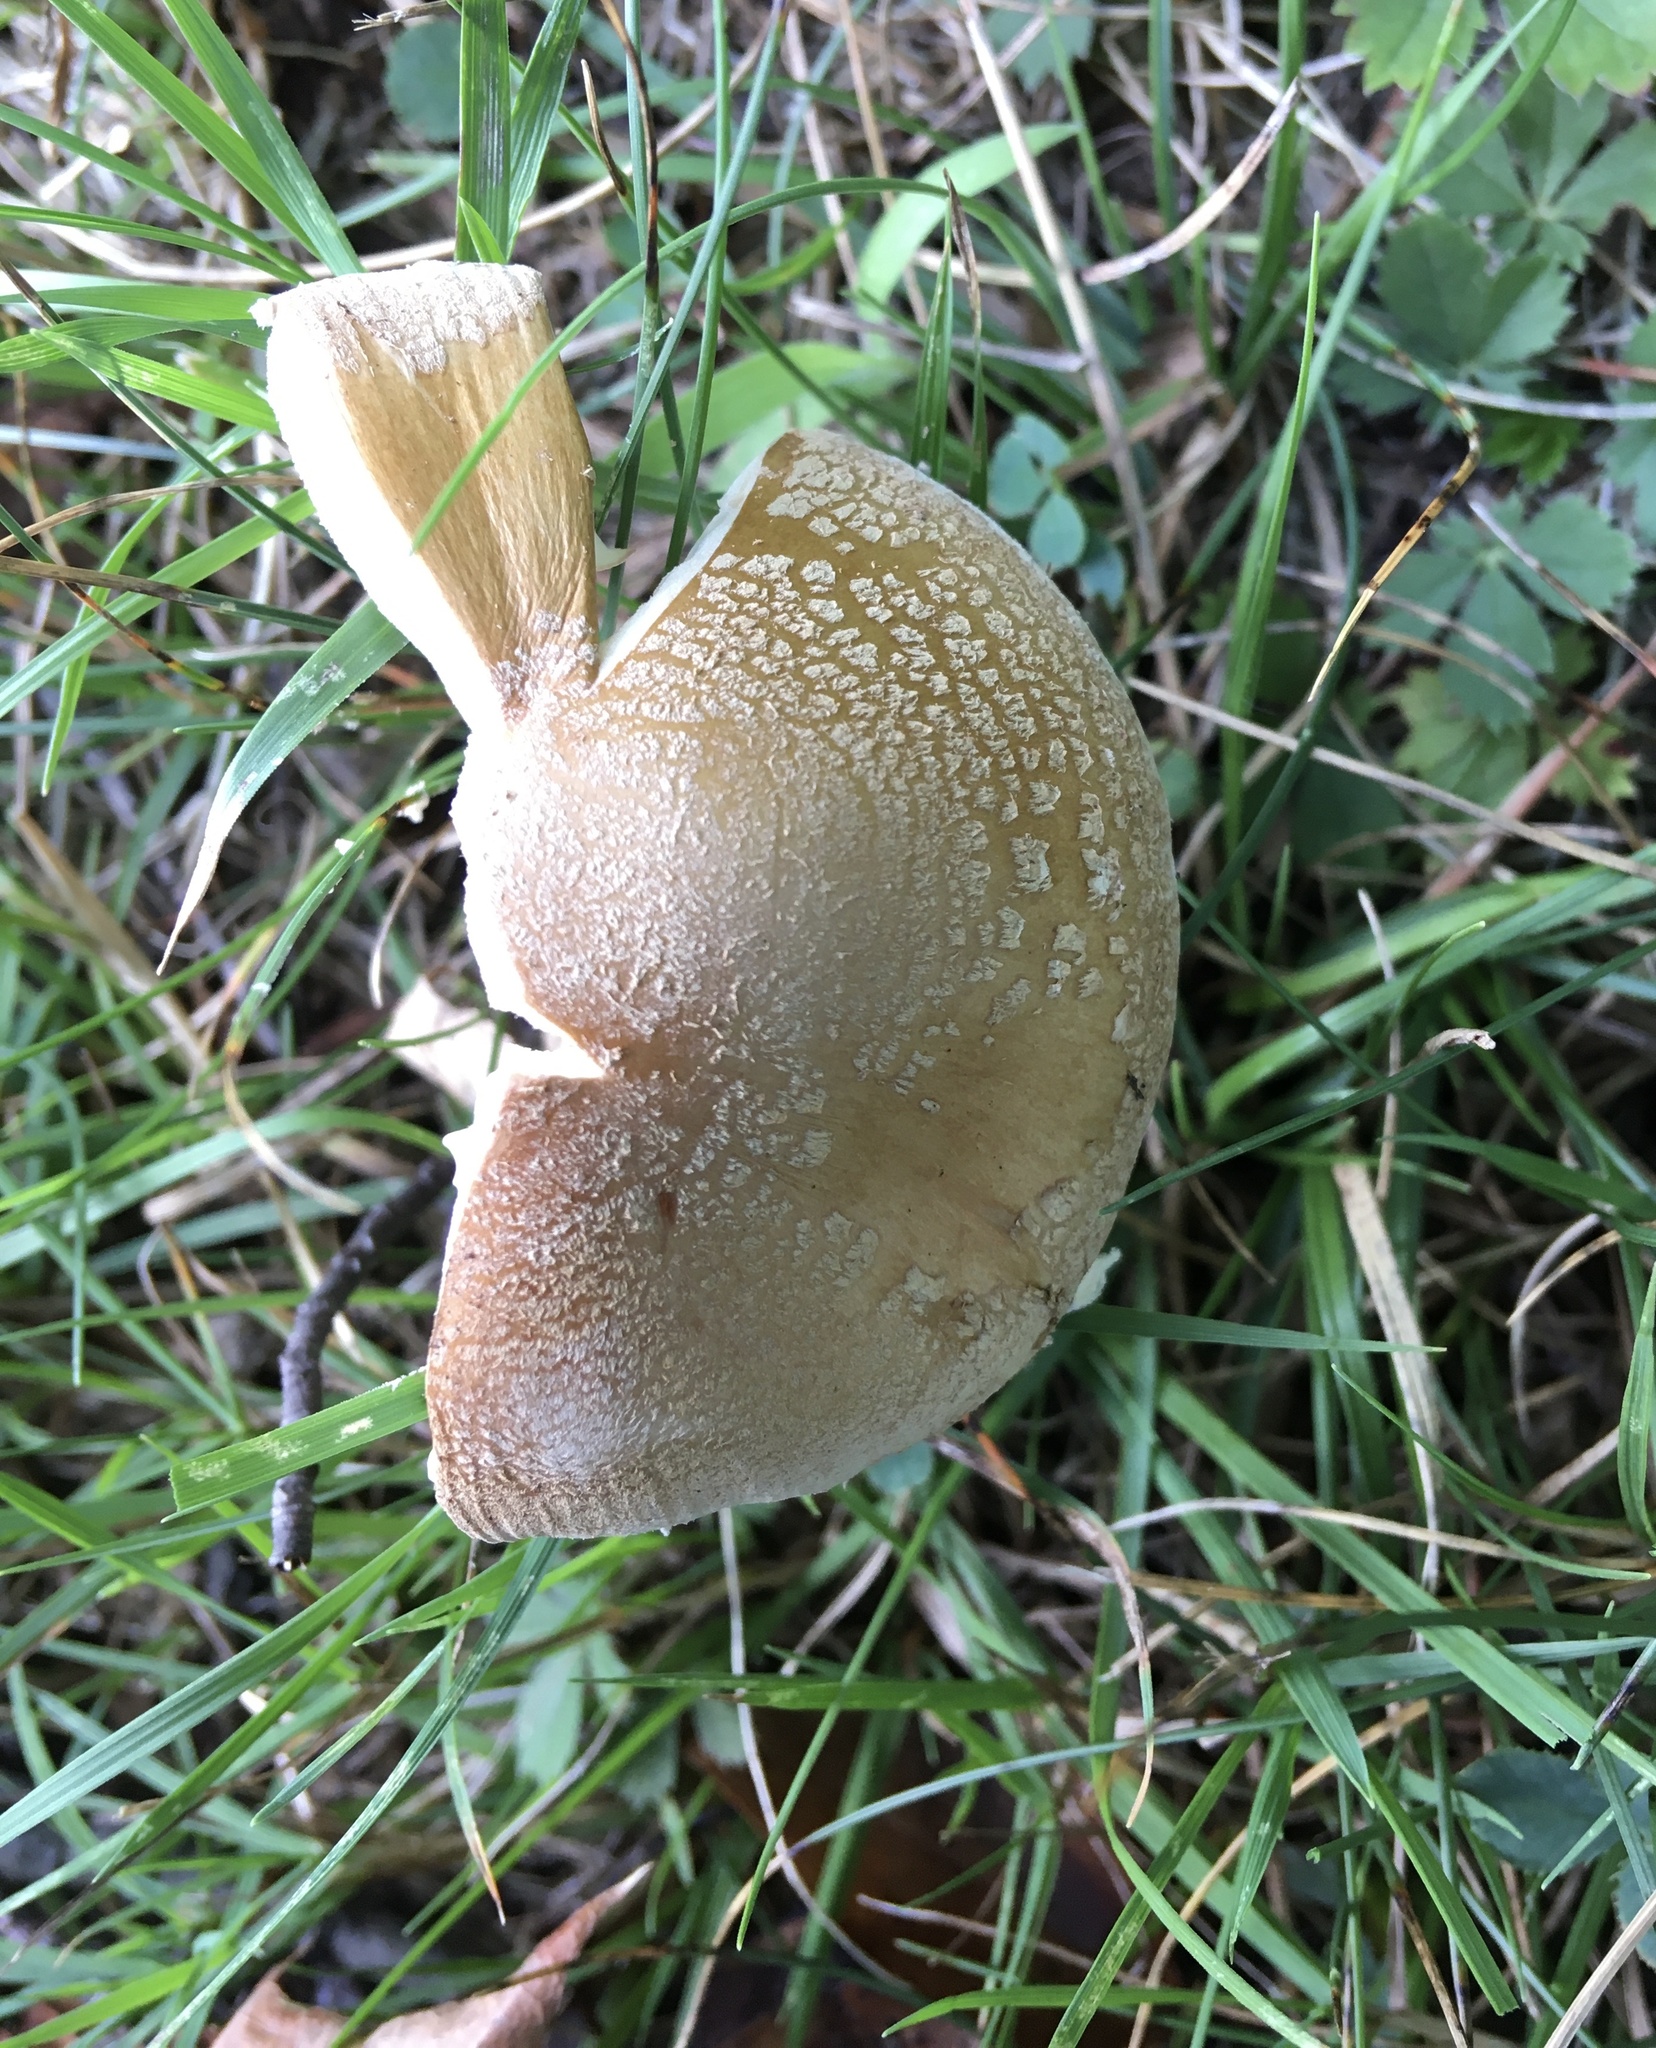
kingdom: Fungi
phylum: Basidiomycota
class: Agaricomycetes
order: Agaricales
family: Amanitaceae
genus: Amanita
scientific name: Amanita crenulata
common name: Poison champagne amanita
